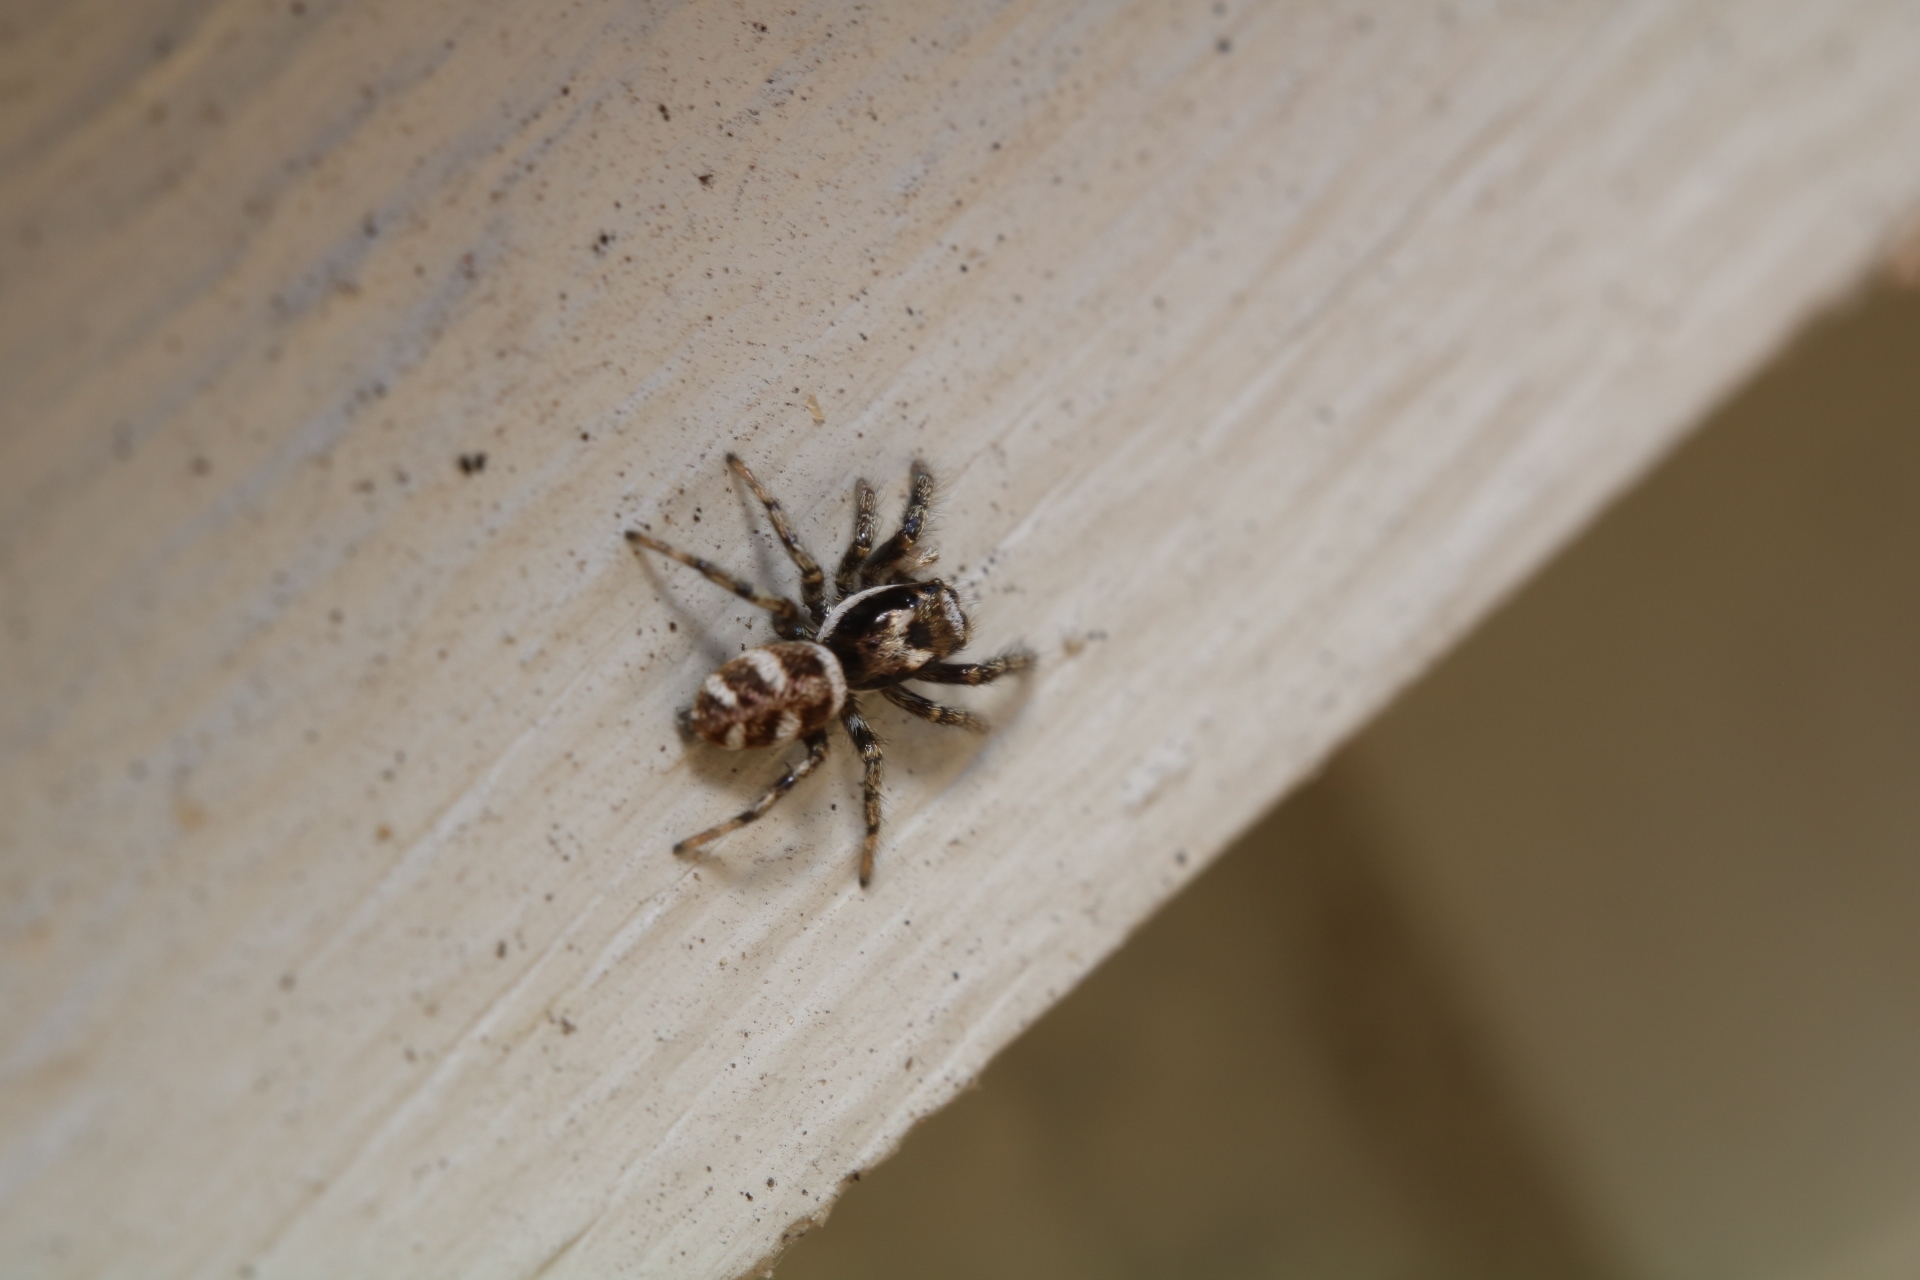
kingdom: Animalia
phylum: Arthropoda
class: Arachnida
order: Araneae
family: Salticidae
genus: Salticus
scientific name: Salticus scenicus
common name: Zebra jumper
